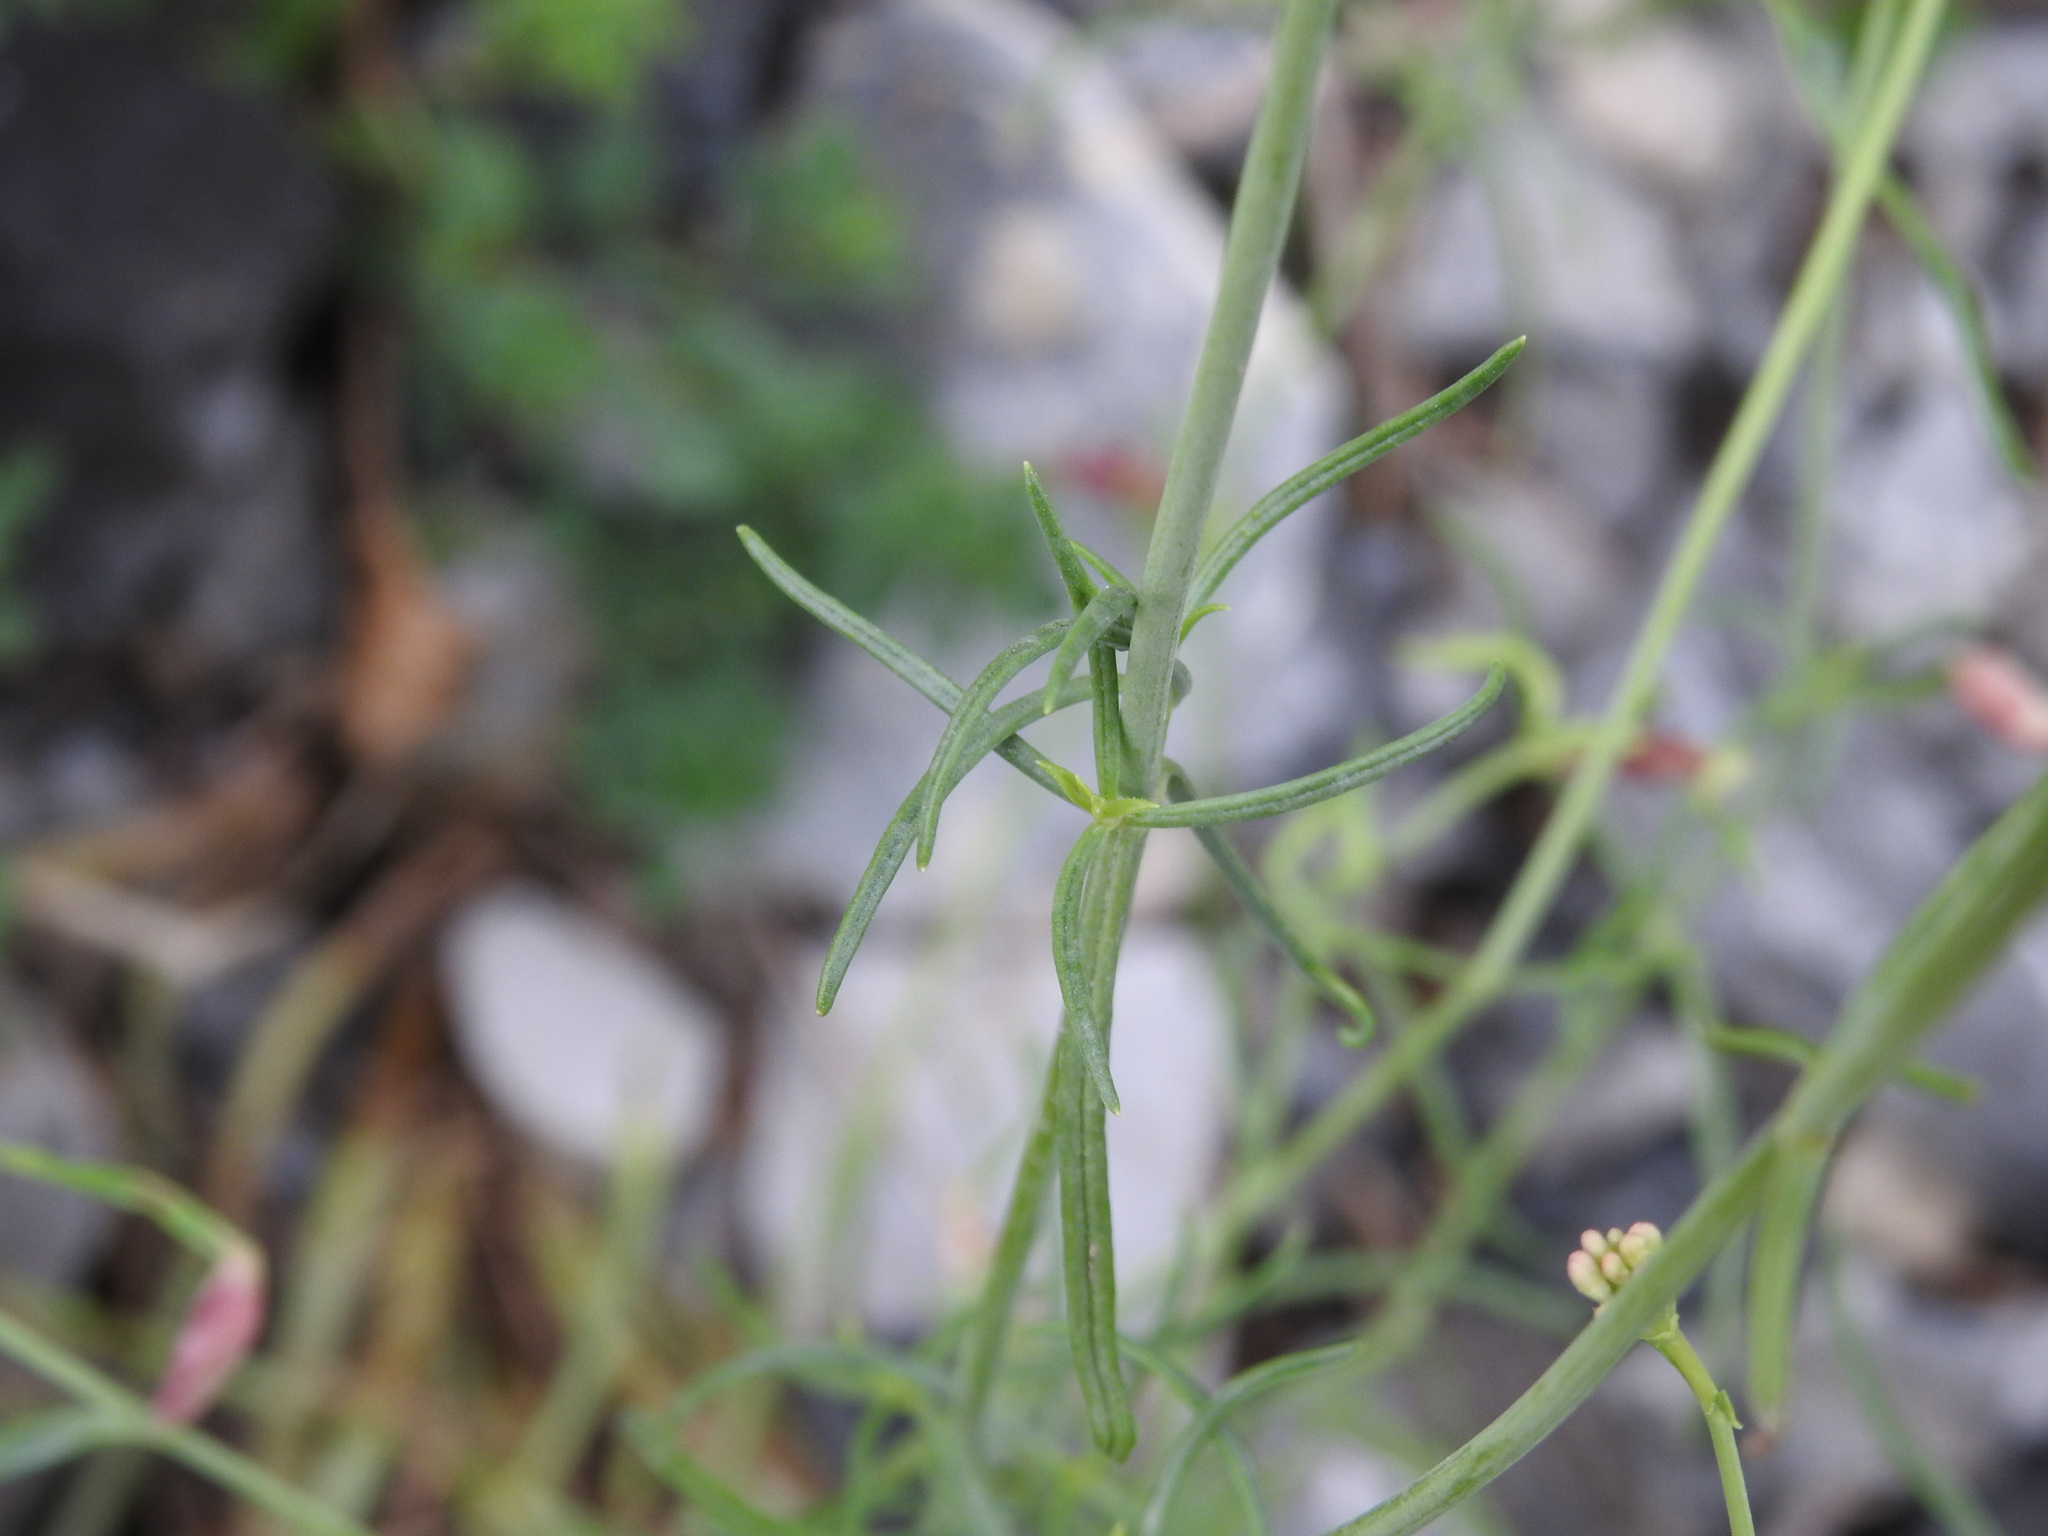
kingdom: Plantae
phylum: Tracheophyta
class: Magnoliopsida
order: Dipsacales
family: Caprifoliaceae
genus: Centranthus
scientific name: Centranthus angustifolius
